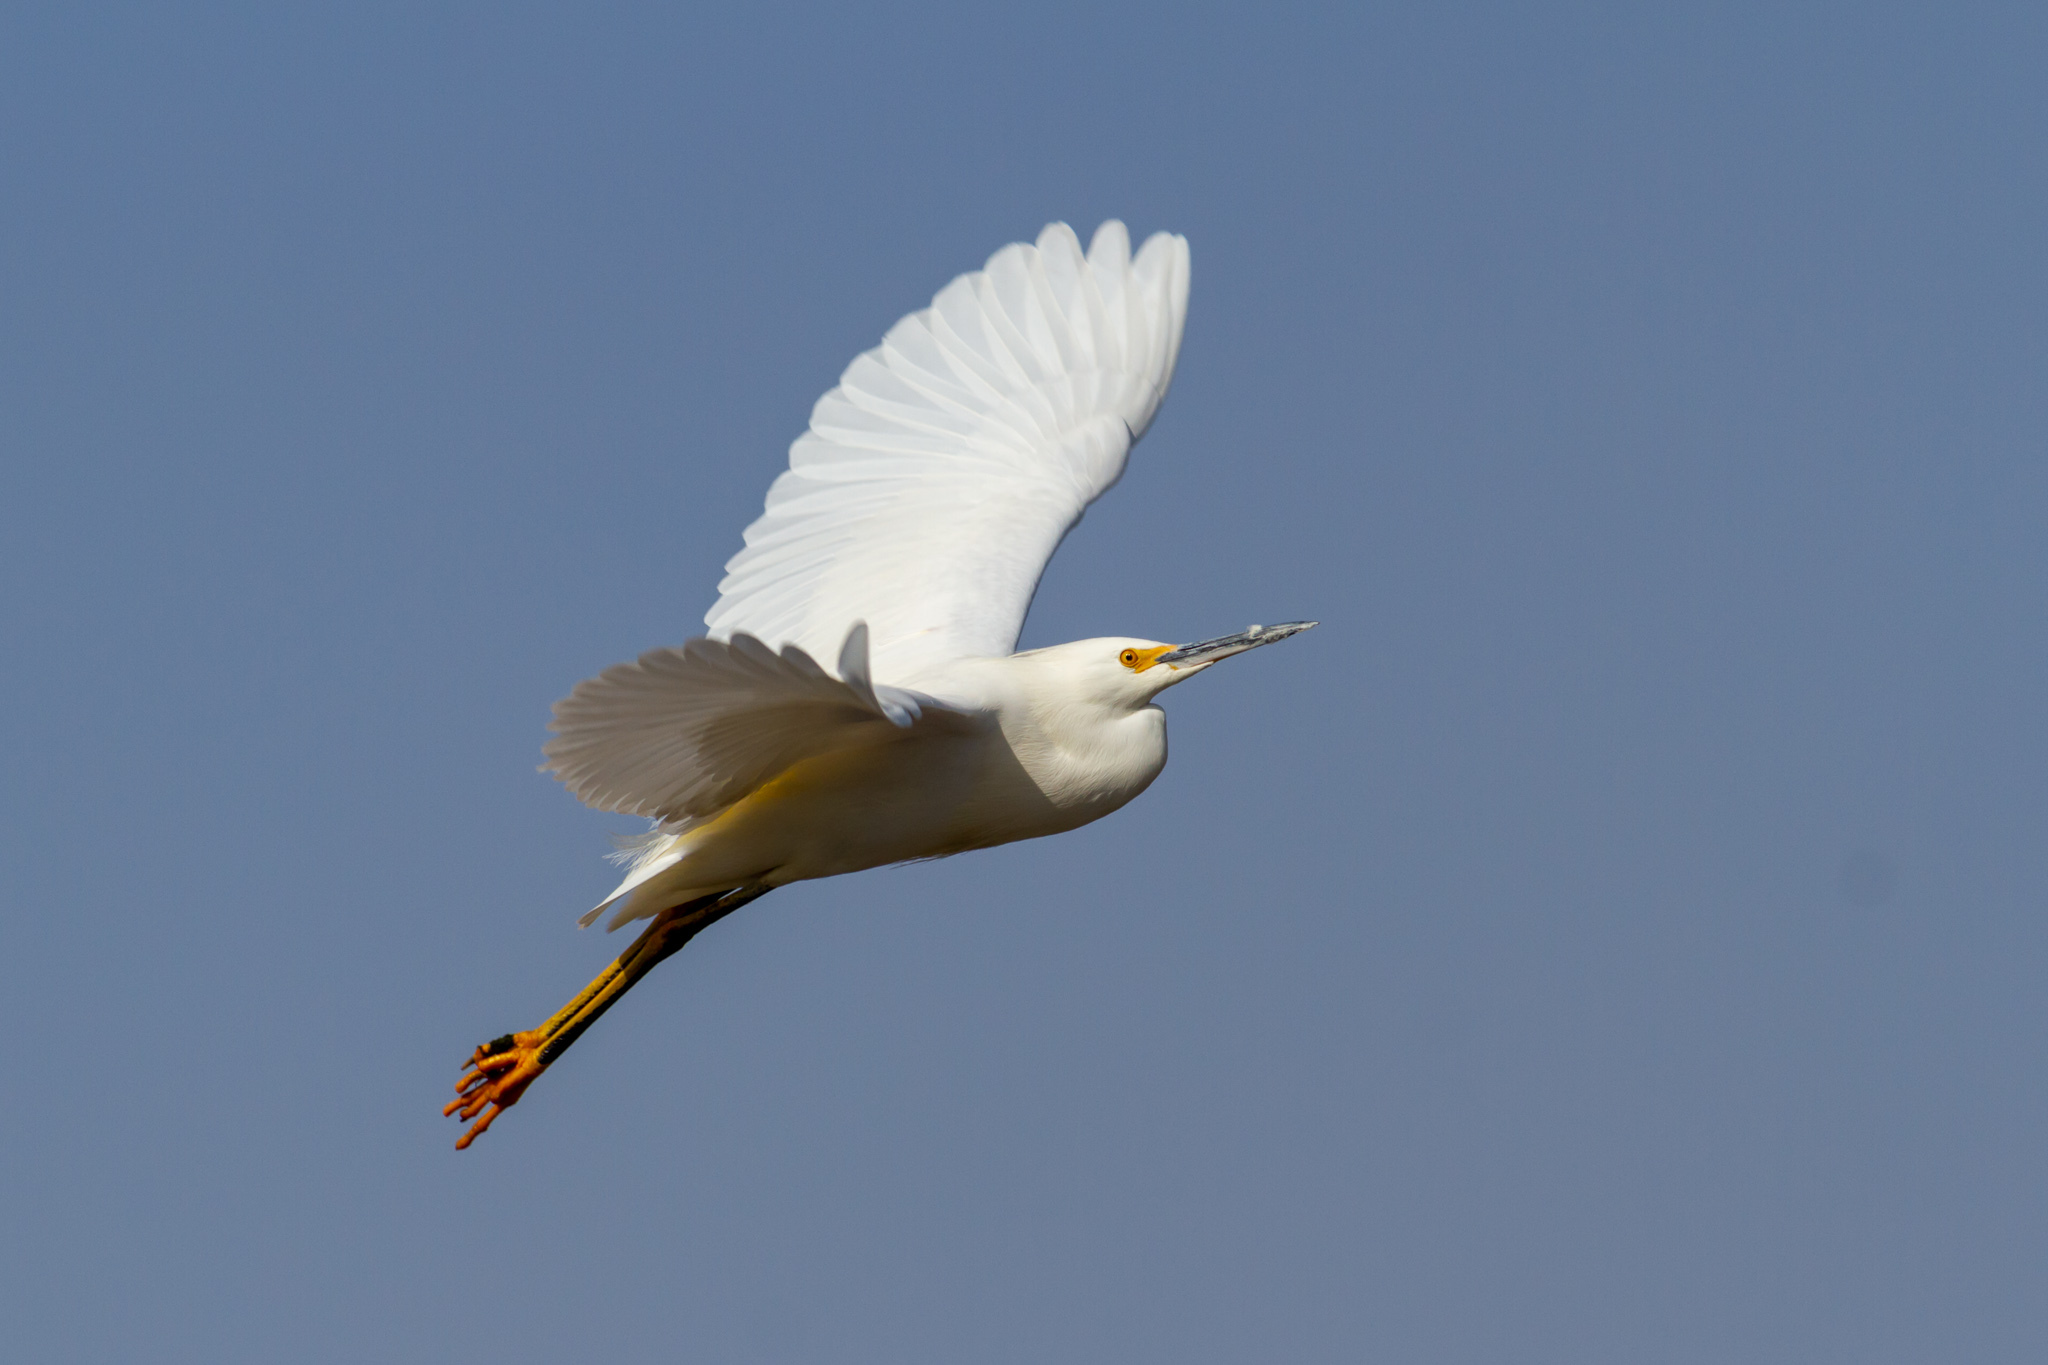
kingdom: Animalia
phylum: Chordata
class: Aves
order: Pelecaniformes
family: Ardeidae
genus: Egretta
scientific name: Egretta thula
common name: Snowy egret
